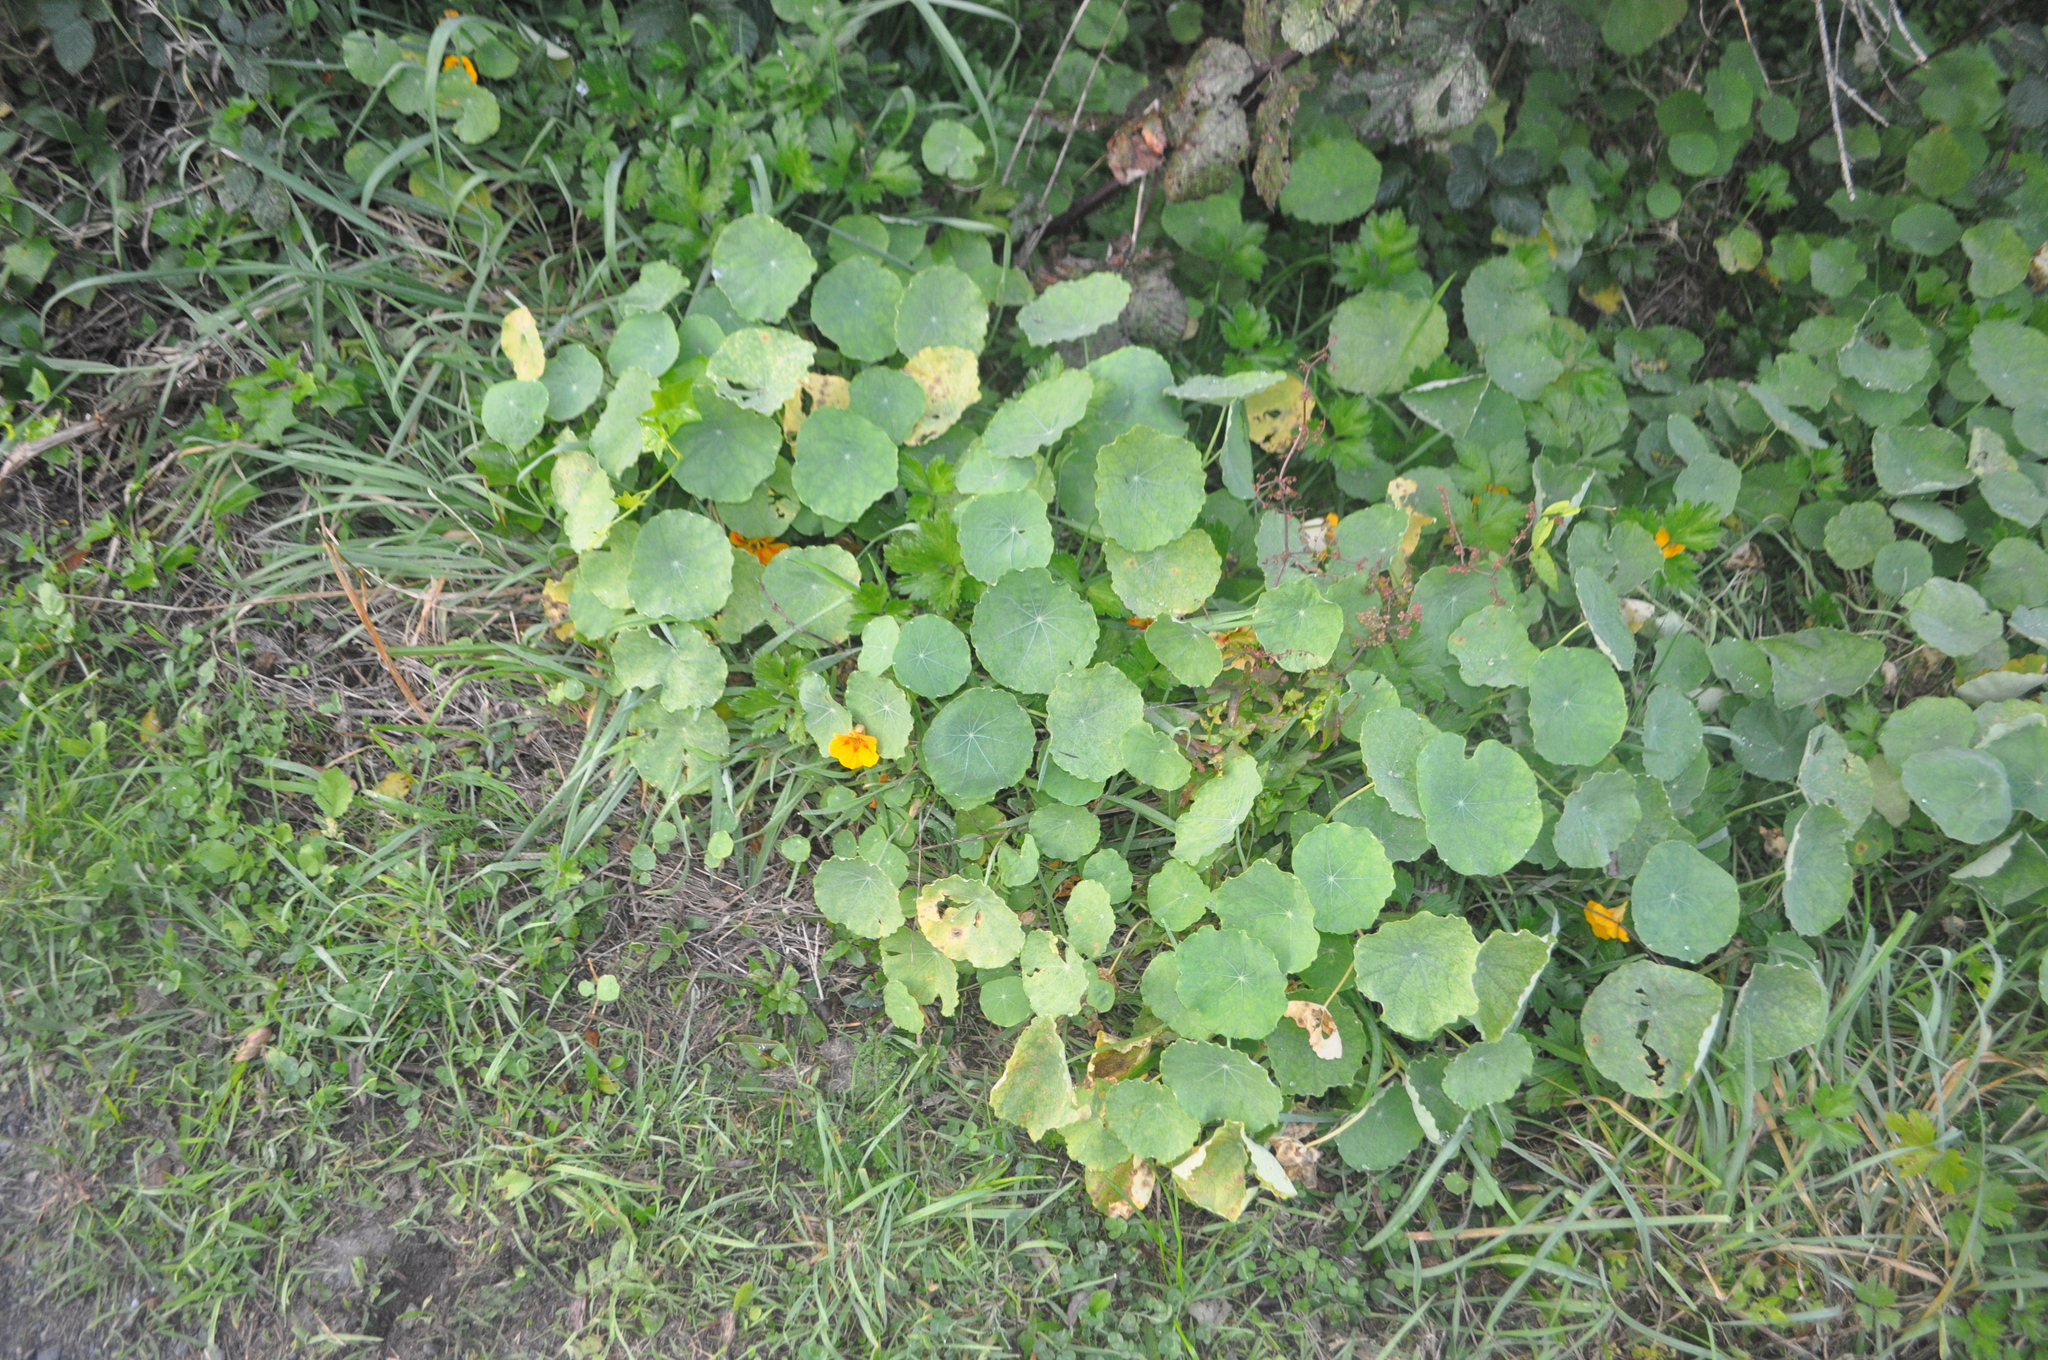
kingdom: Plantae
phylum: Tracheophyta
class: Magnoliopsida
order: Brassicales
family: Tropaeolaceae
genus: Tropaeolum
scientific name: Tropaeolum majus
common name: Nasturtium
